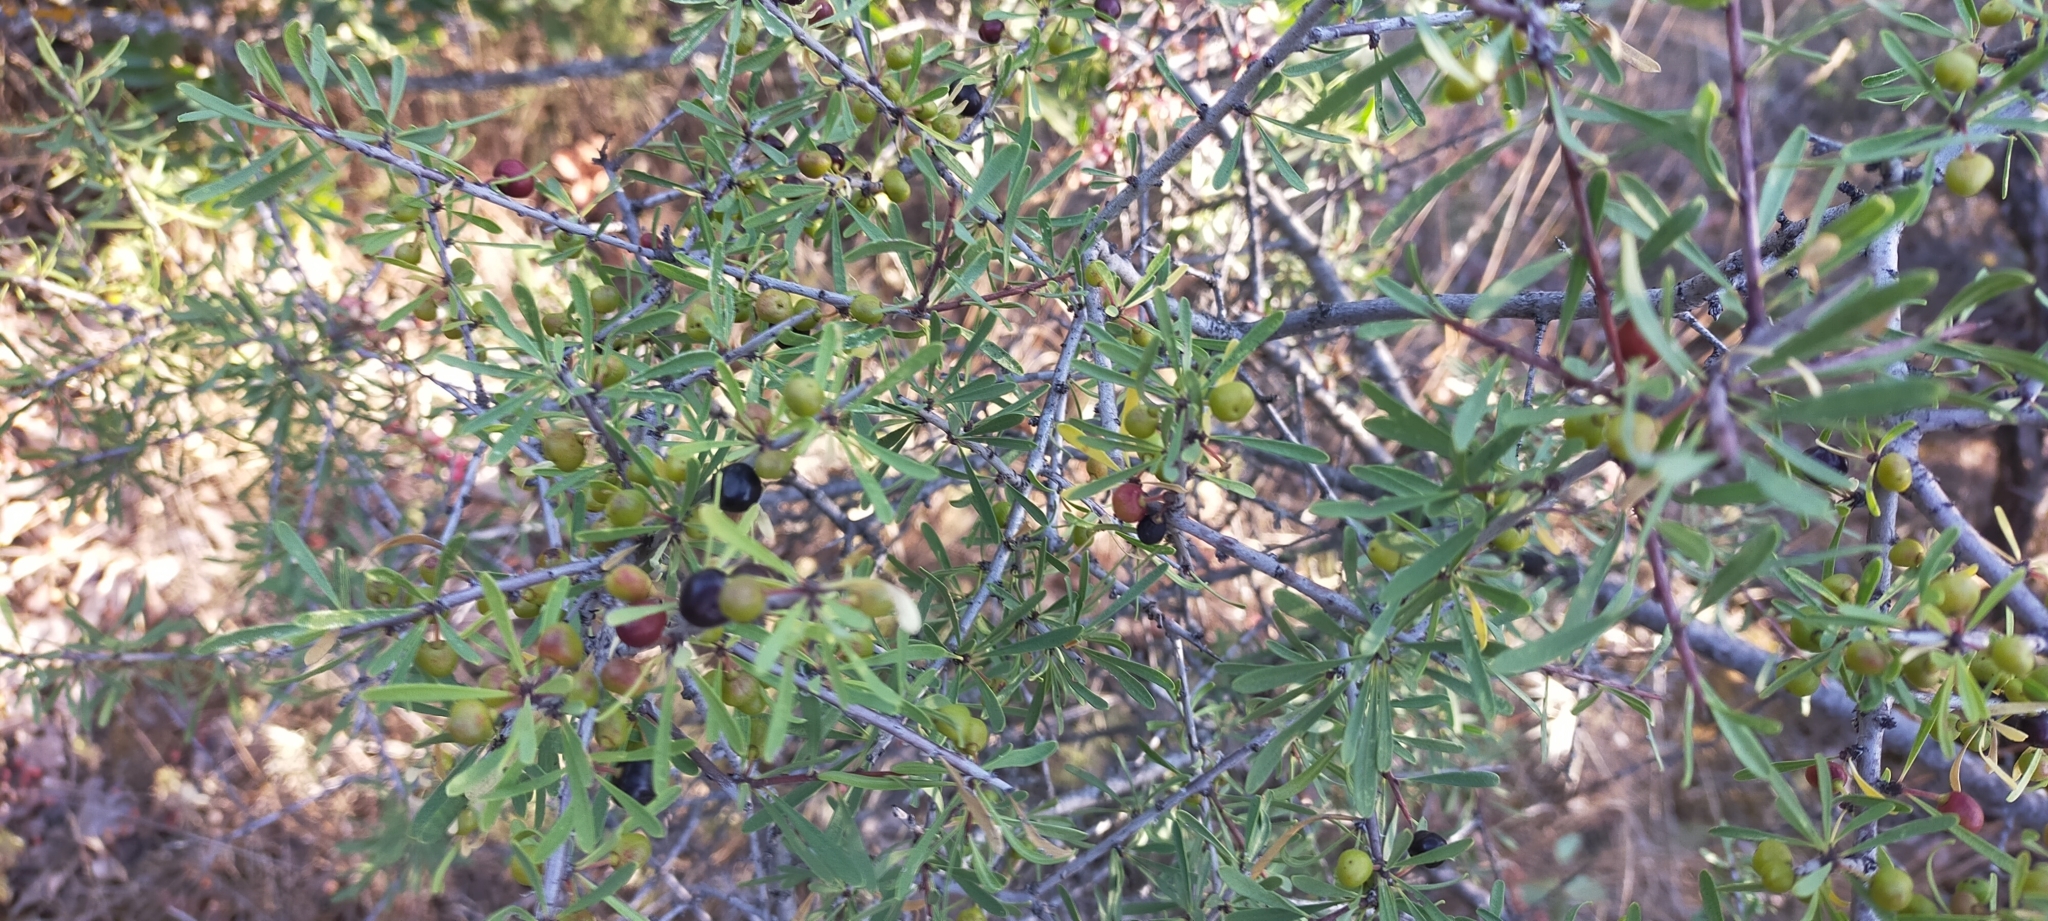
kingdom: Plantae
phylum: Tracheophyta
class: Magnoliopsida
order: Rosales
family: Rhamnaceae
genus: Rhamnus
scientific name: Rhamnus lycioides
